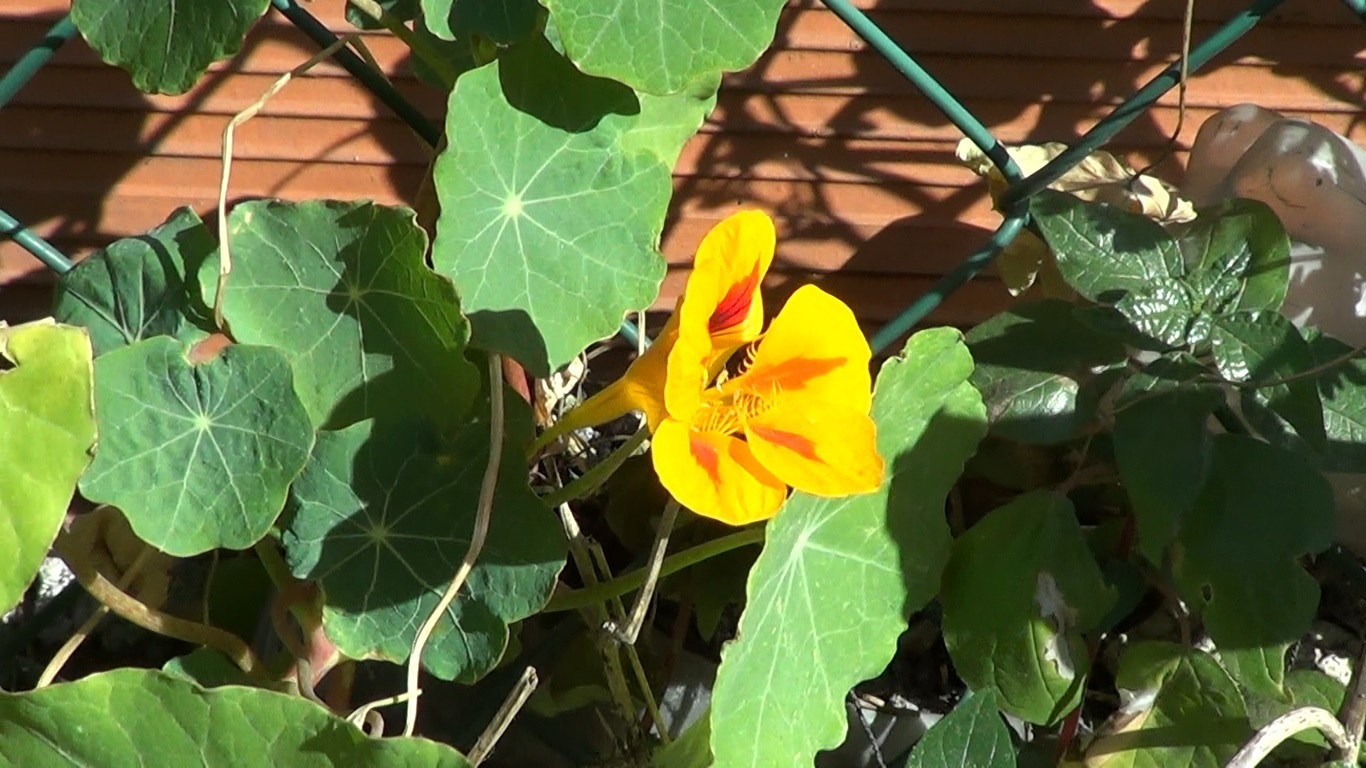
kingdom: Plantae
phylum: Tracheophyta
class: Magnoliopsida
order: Brassicales
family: Tropaeolaceae
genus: Tropaeolum
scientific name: Tropaeolum majus
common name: Nasturtium
